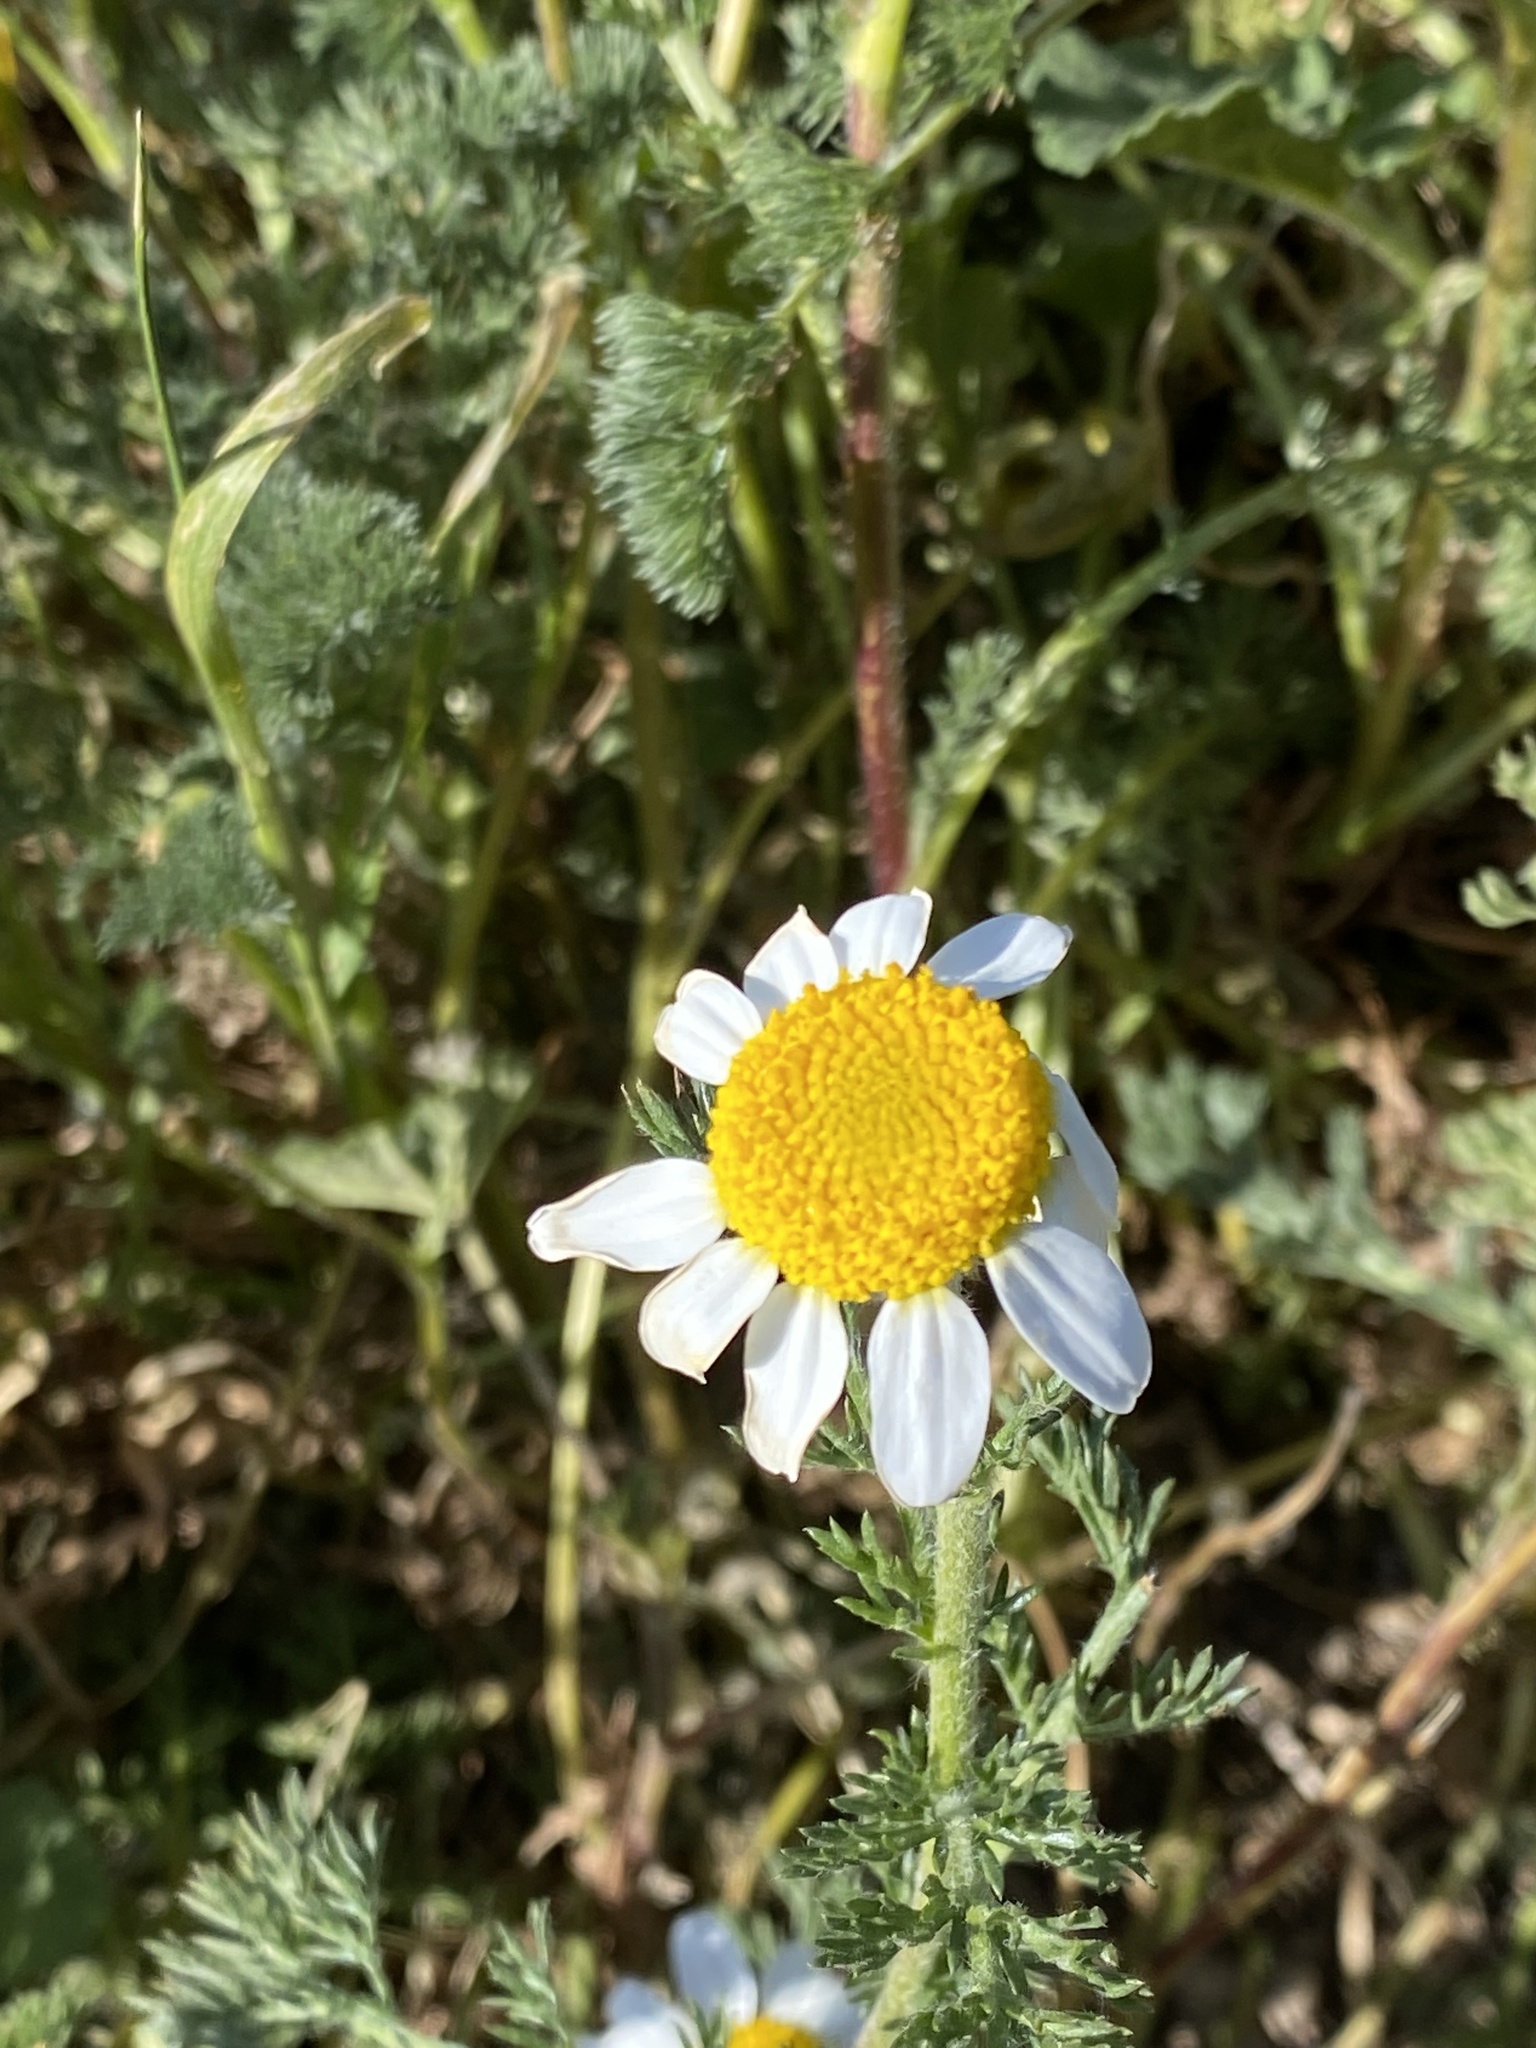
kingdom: Plantae
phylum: Tracheophyta
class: Magnoliopsida
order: Asterales
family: Asteraceae
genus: Anacyclus
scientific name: Anacyclus clavatus
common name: Whitebuttons
